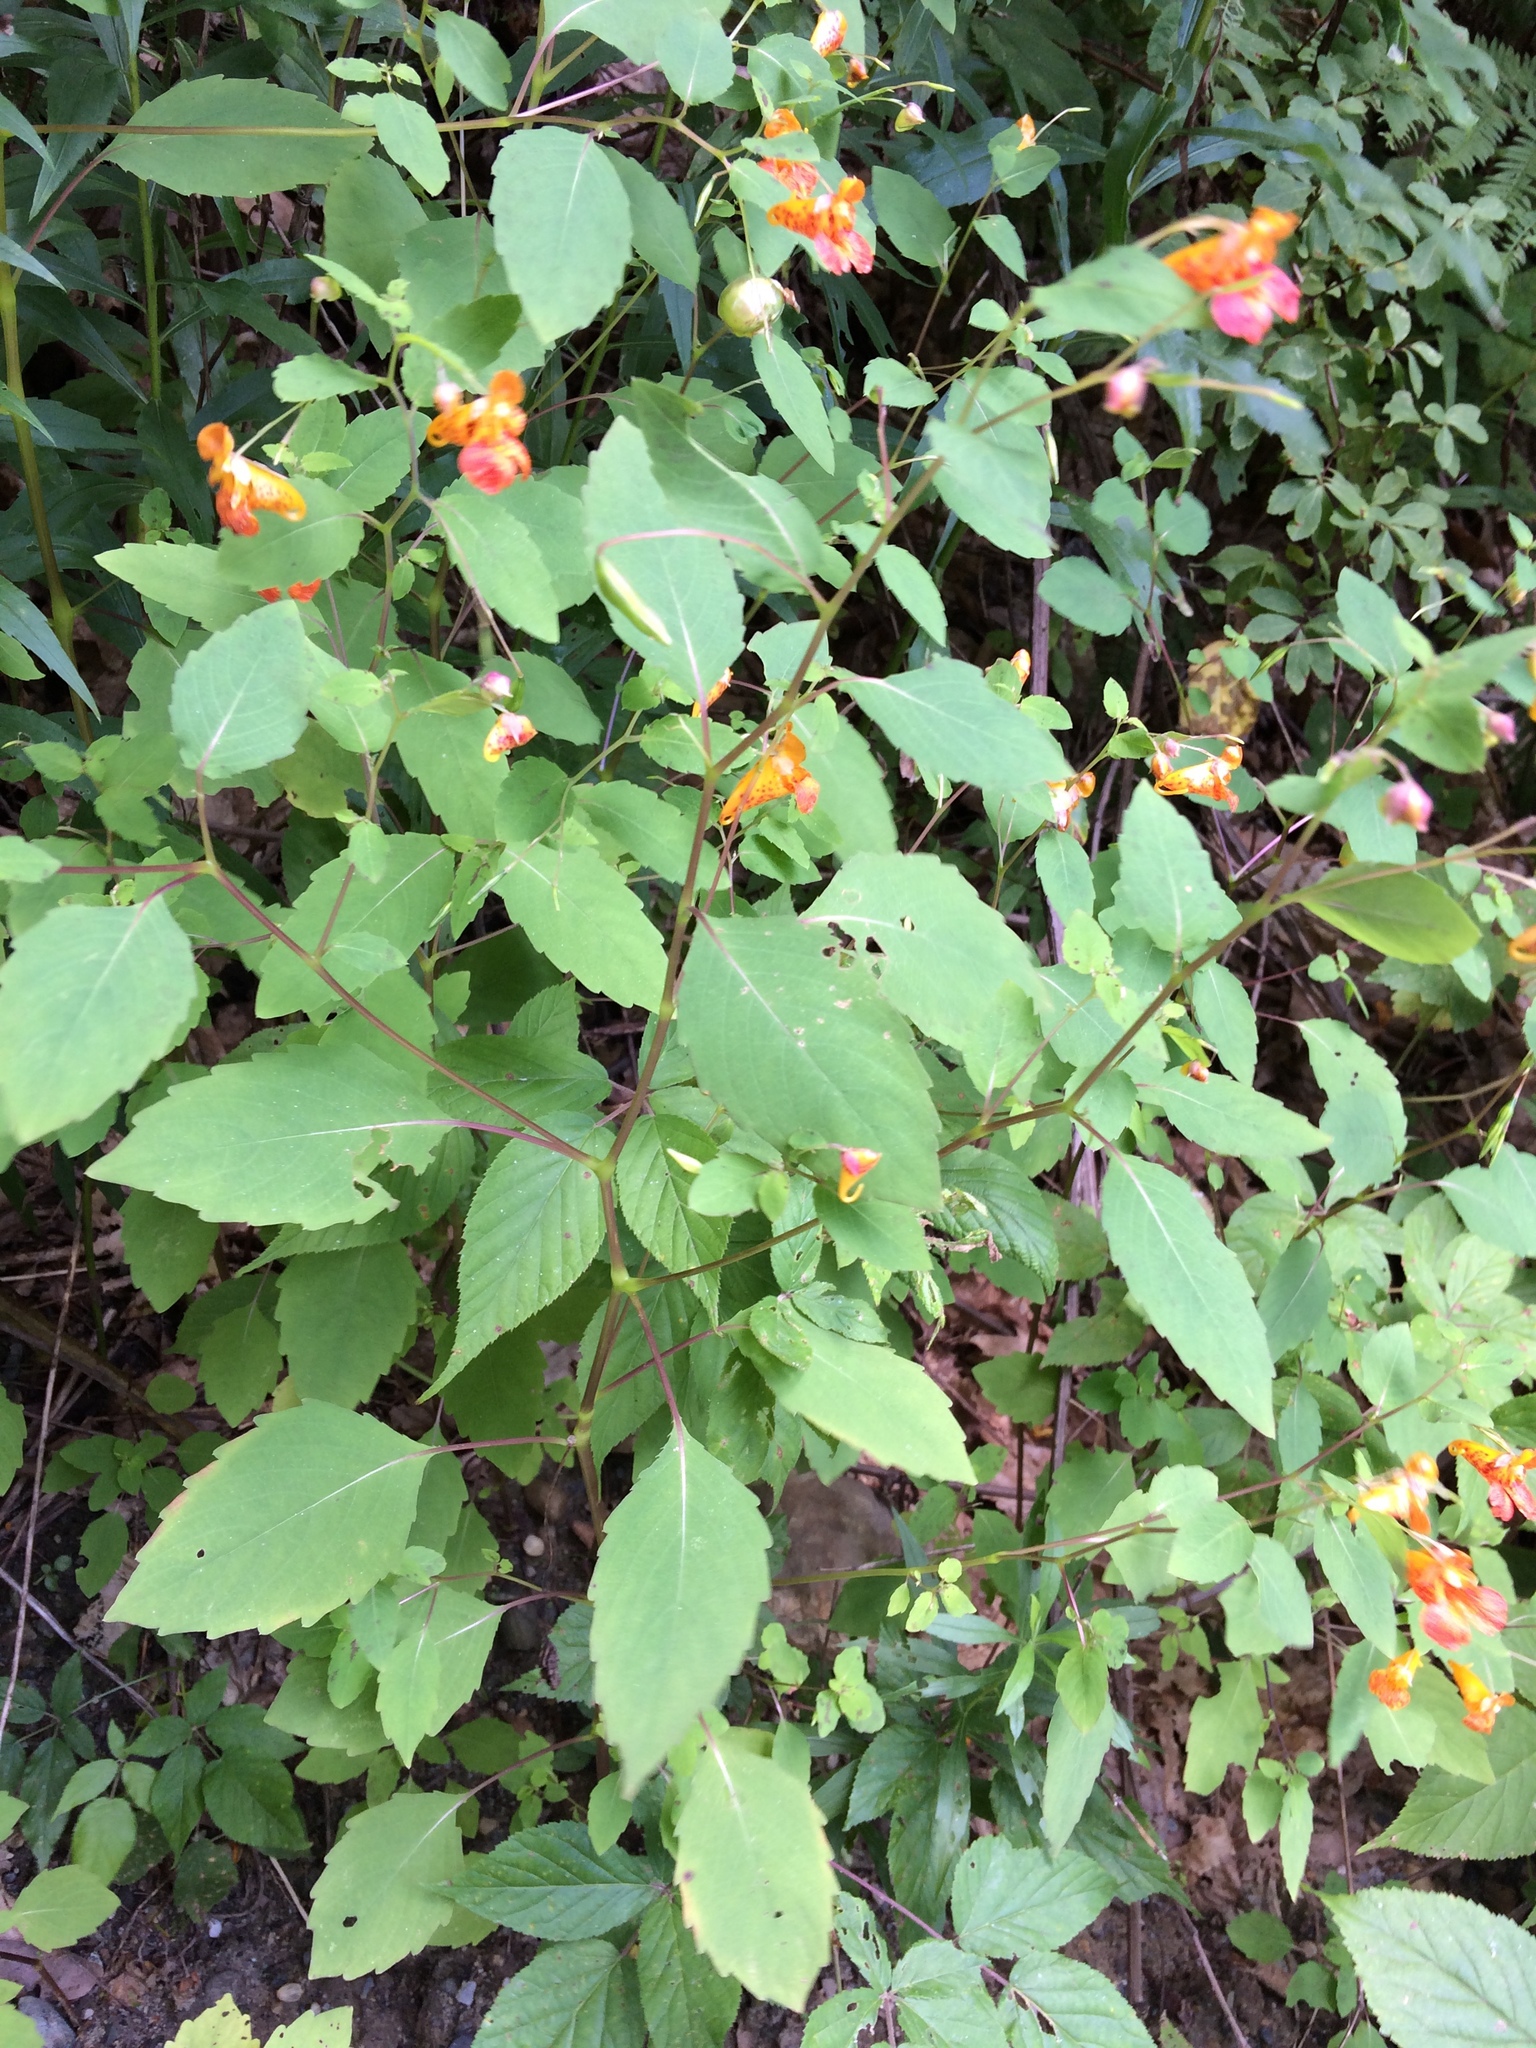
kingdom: Plantae
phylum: Tracheophyta
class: Magnoliopsida
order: Ericales
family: Balsaminaceae
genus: Impatiens
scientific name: Impatiens capensis
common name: Orange balsam
